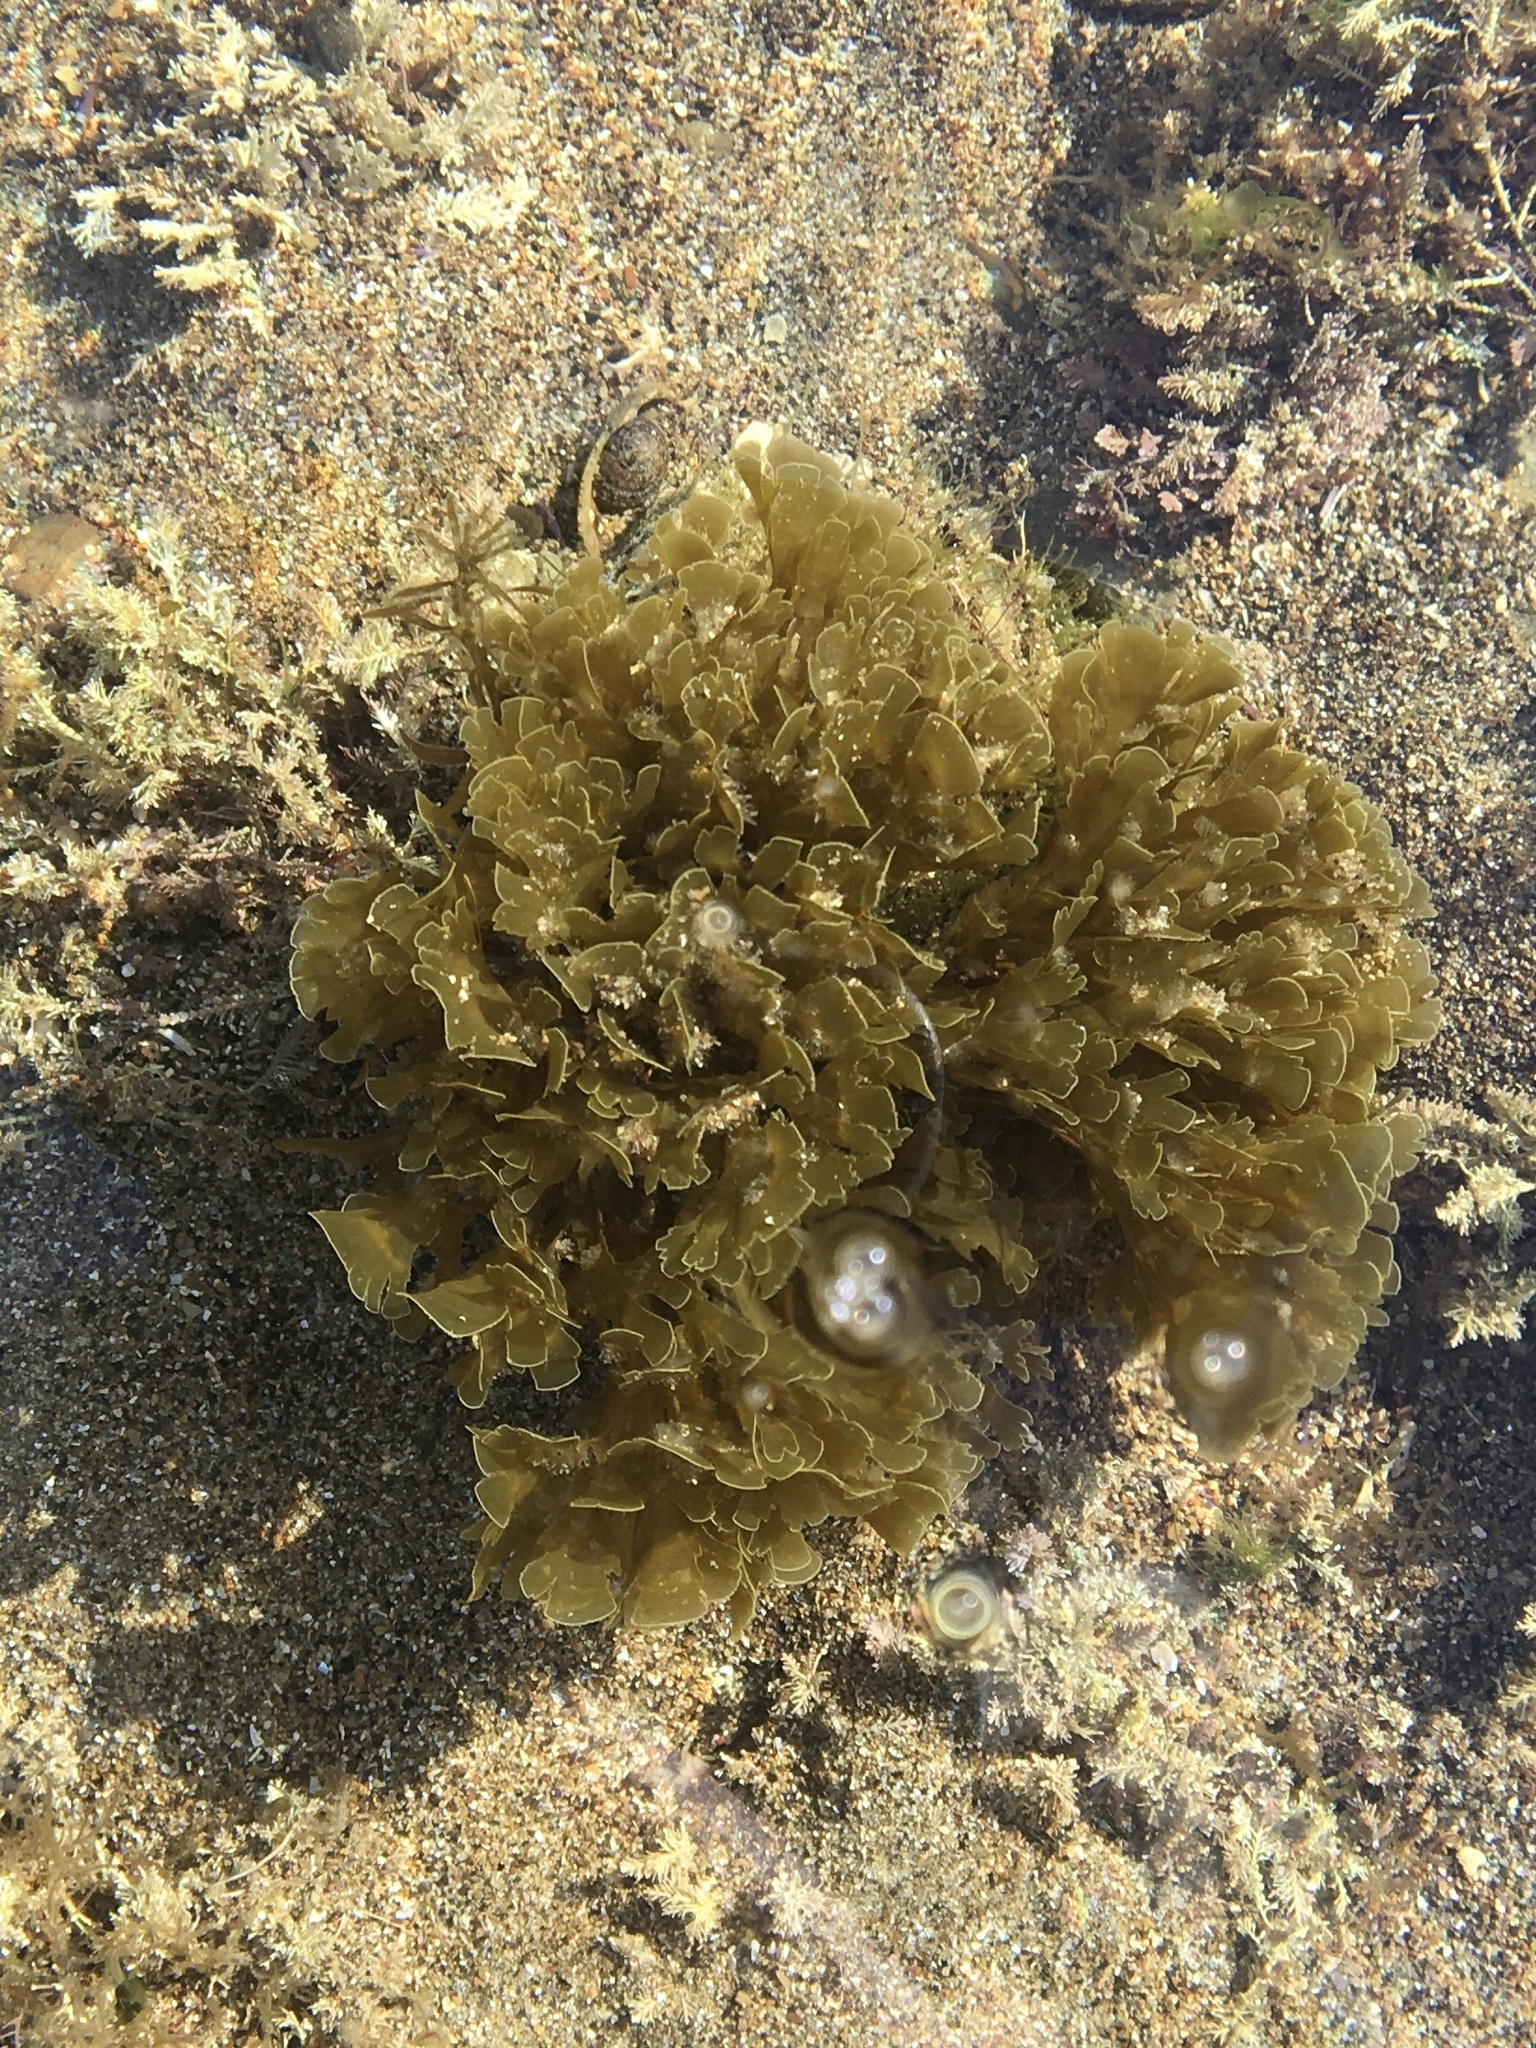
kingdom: Chromista
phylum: Ochrophyta
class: Phaeophyceae
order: Dictyotales
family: Dictyotaceae
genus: Zonaria
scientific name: Zonaria farlowii
